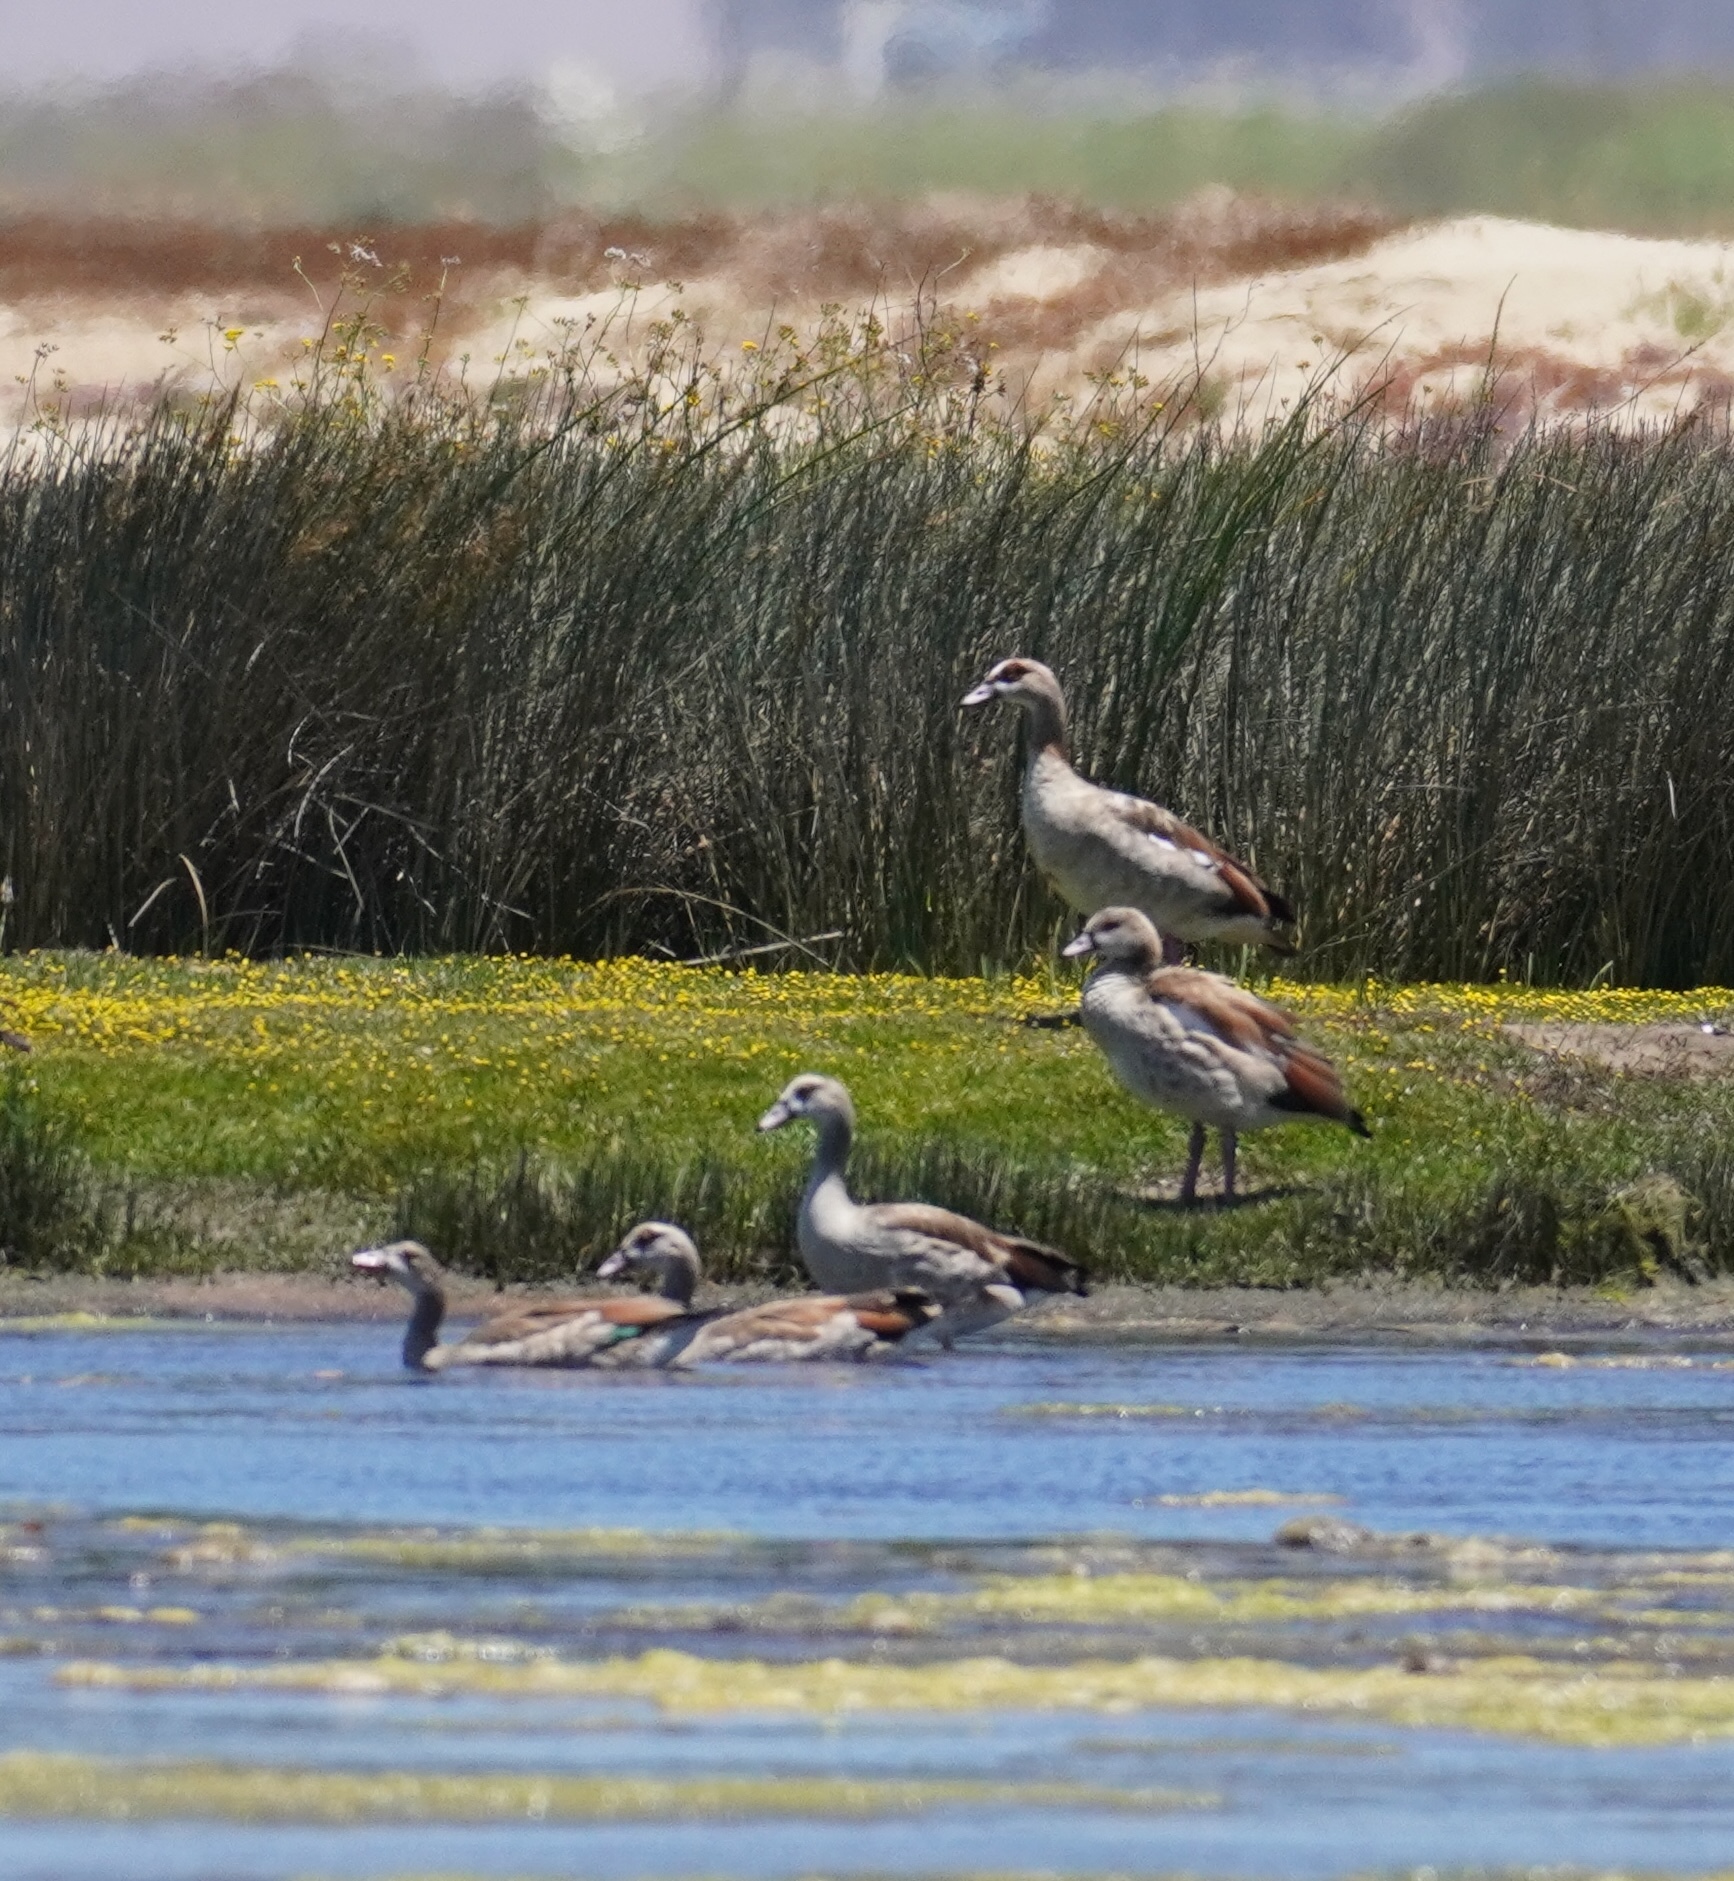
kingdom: Animalia
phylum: Chordata
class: Aves
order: Anseriformes
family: Anatidae
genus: Alopochen
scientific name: Alopochen aegyptiaca
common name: Egyptian goose
